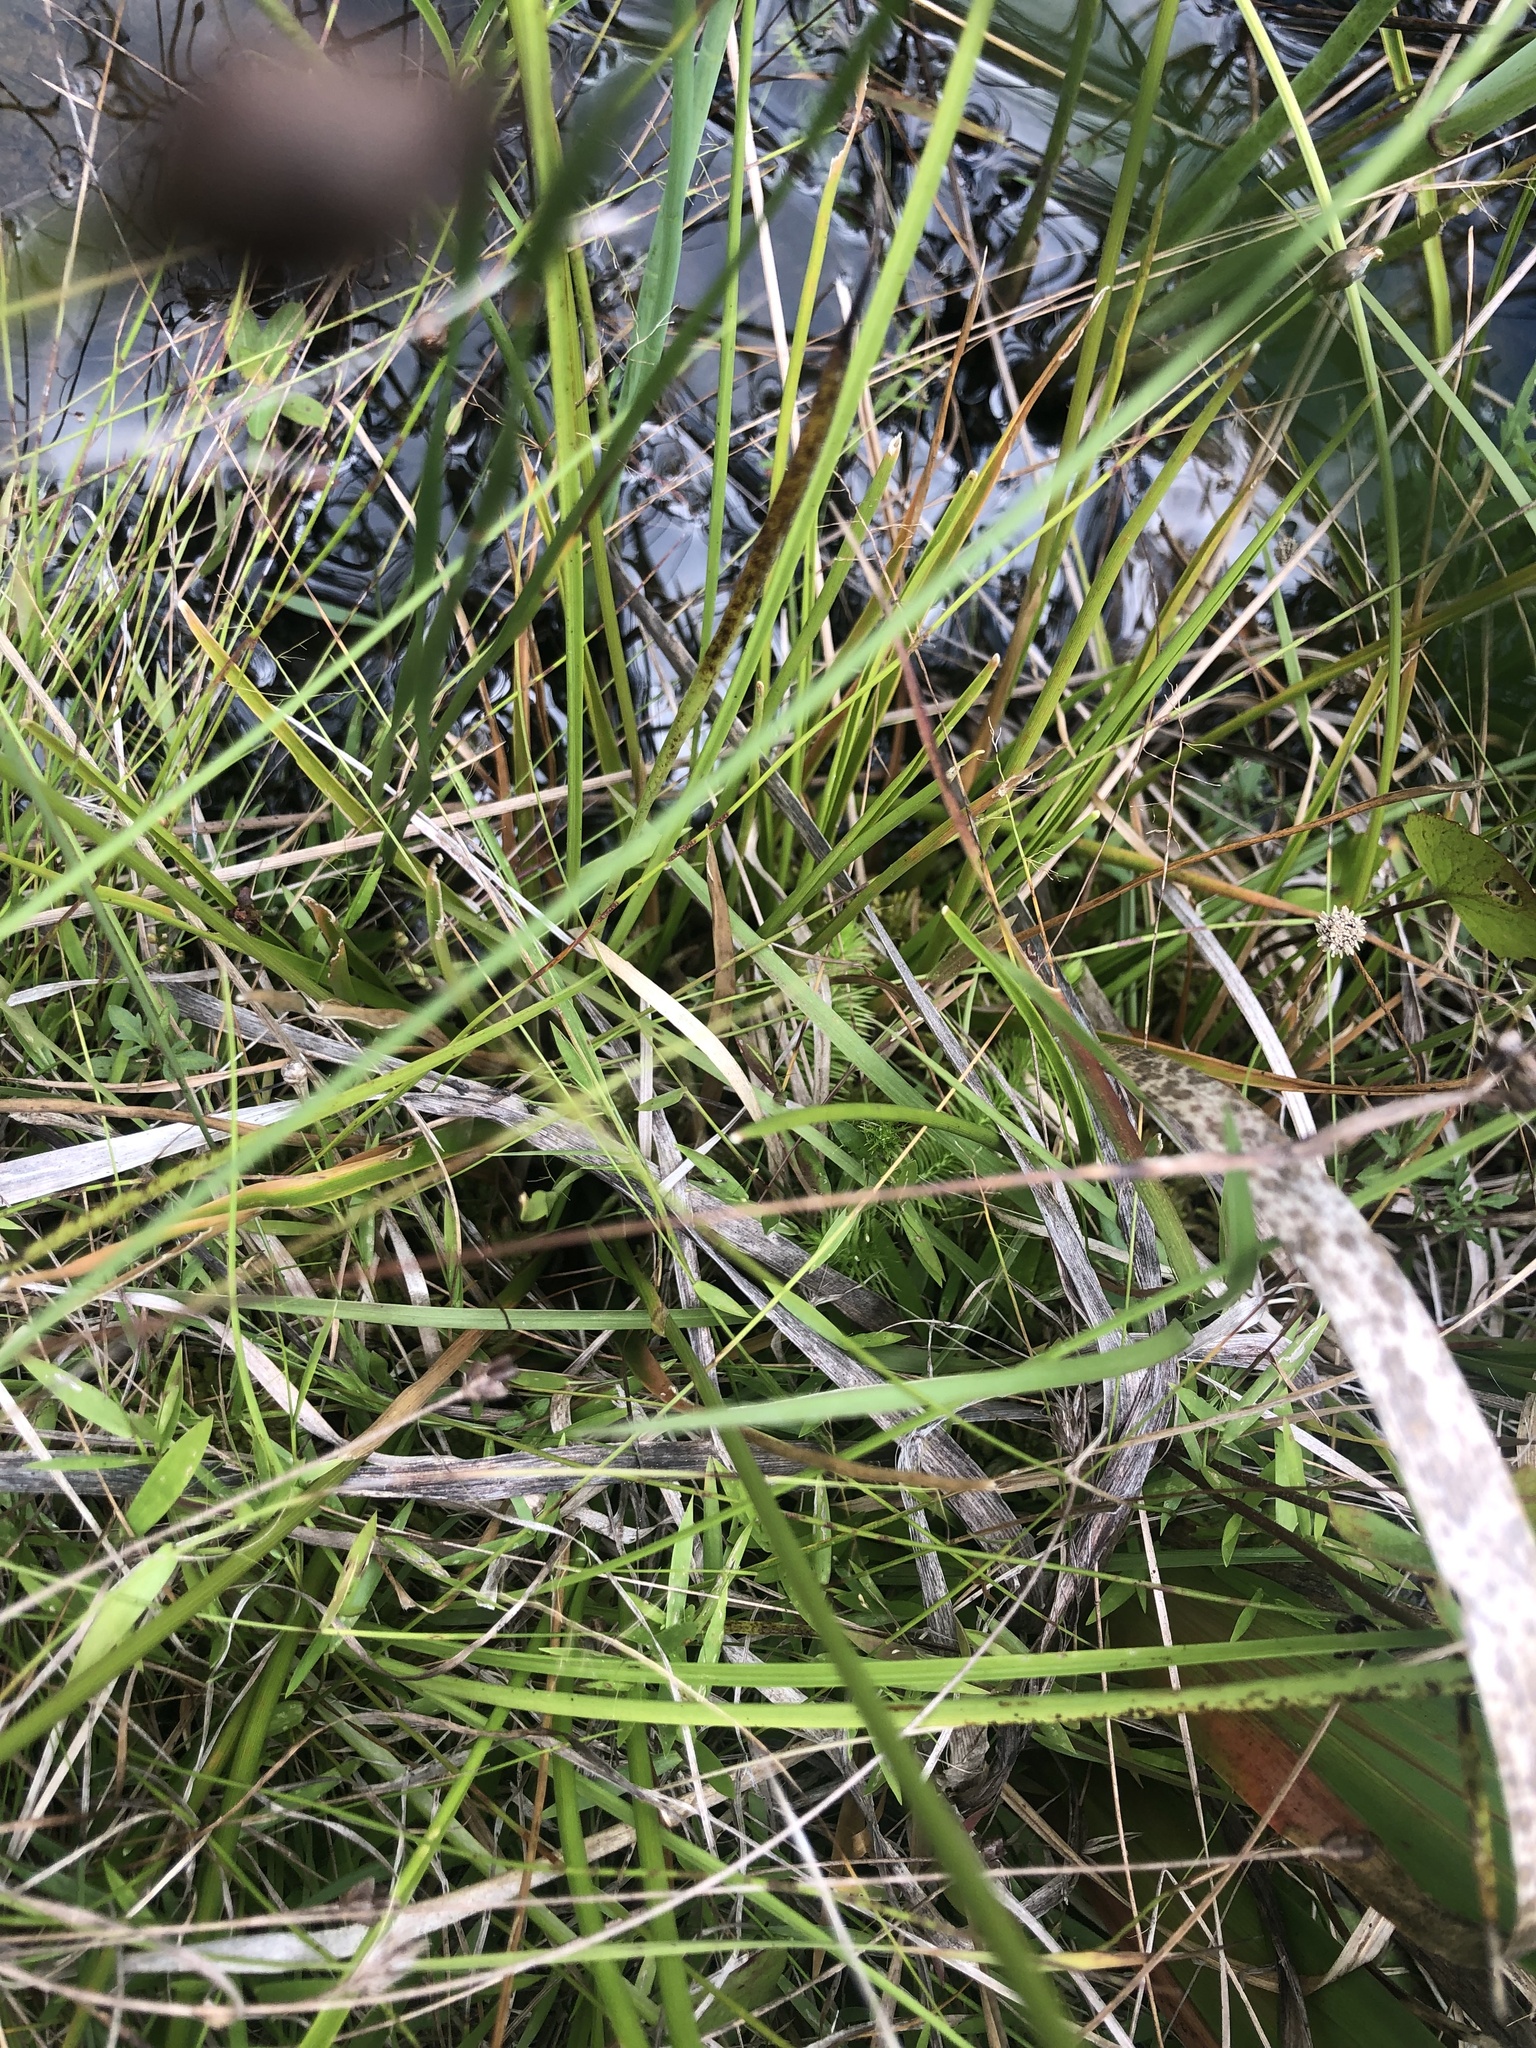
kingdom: Plantae
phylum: Tracheophyta
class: Liliopsida
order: Poales
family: Eriocaulaceae
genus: Eriocaulon
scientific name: Eriocaulon compressum
